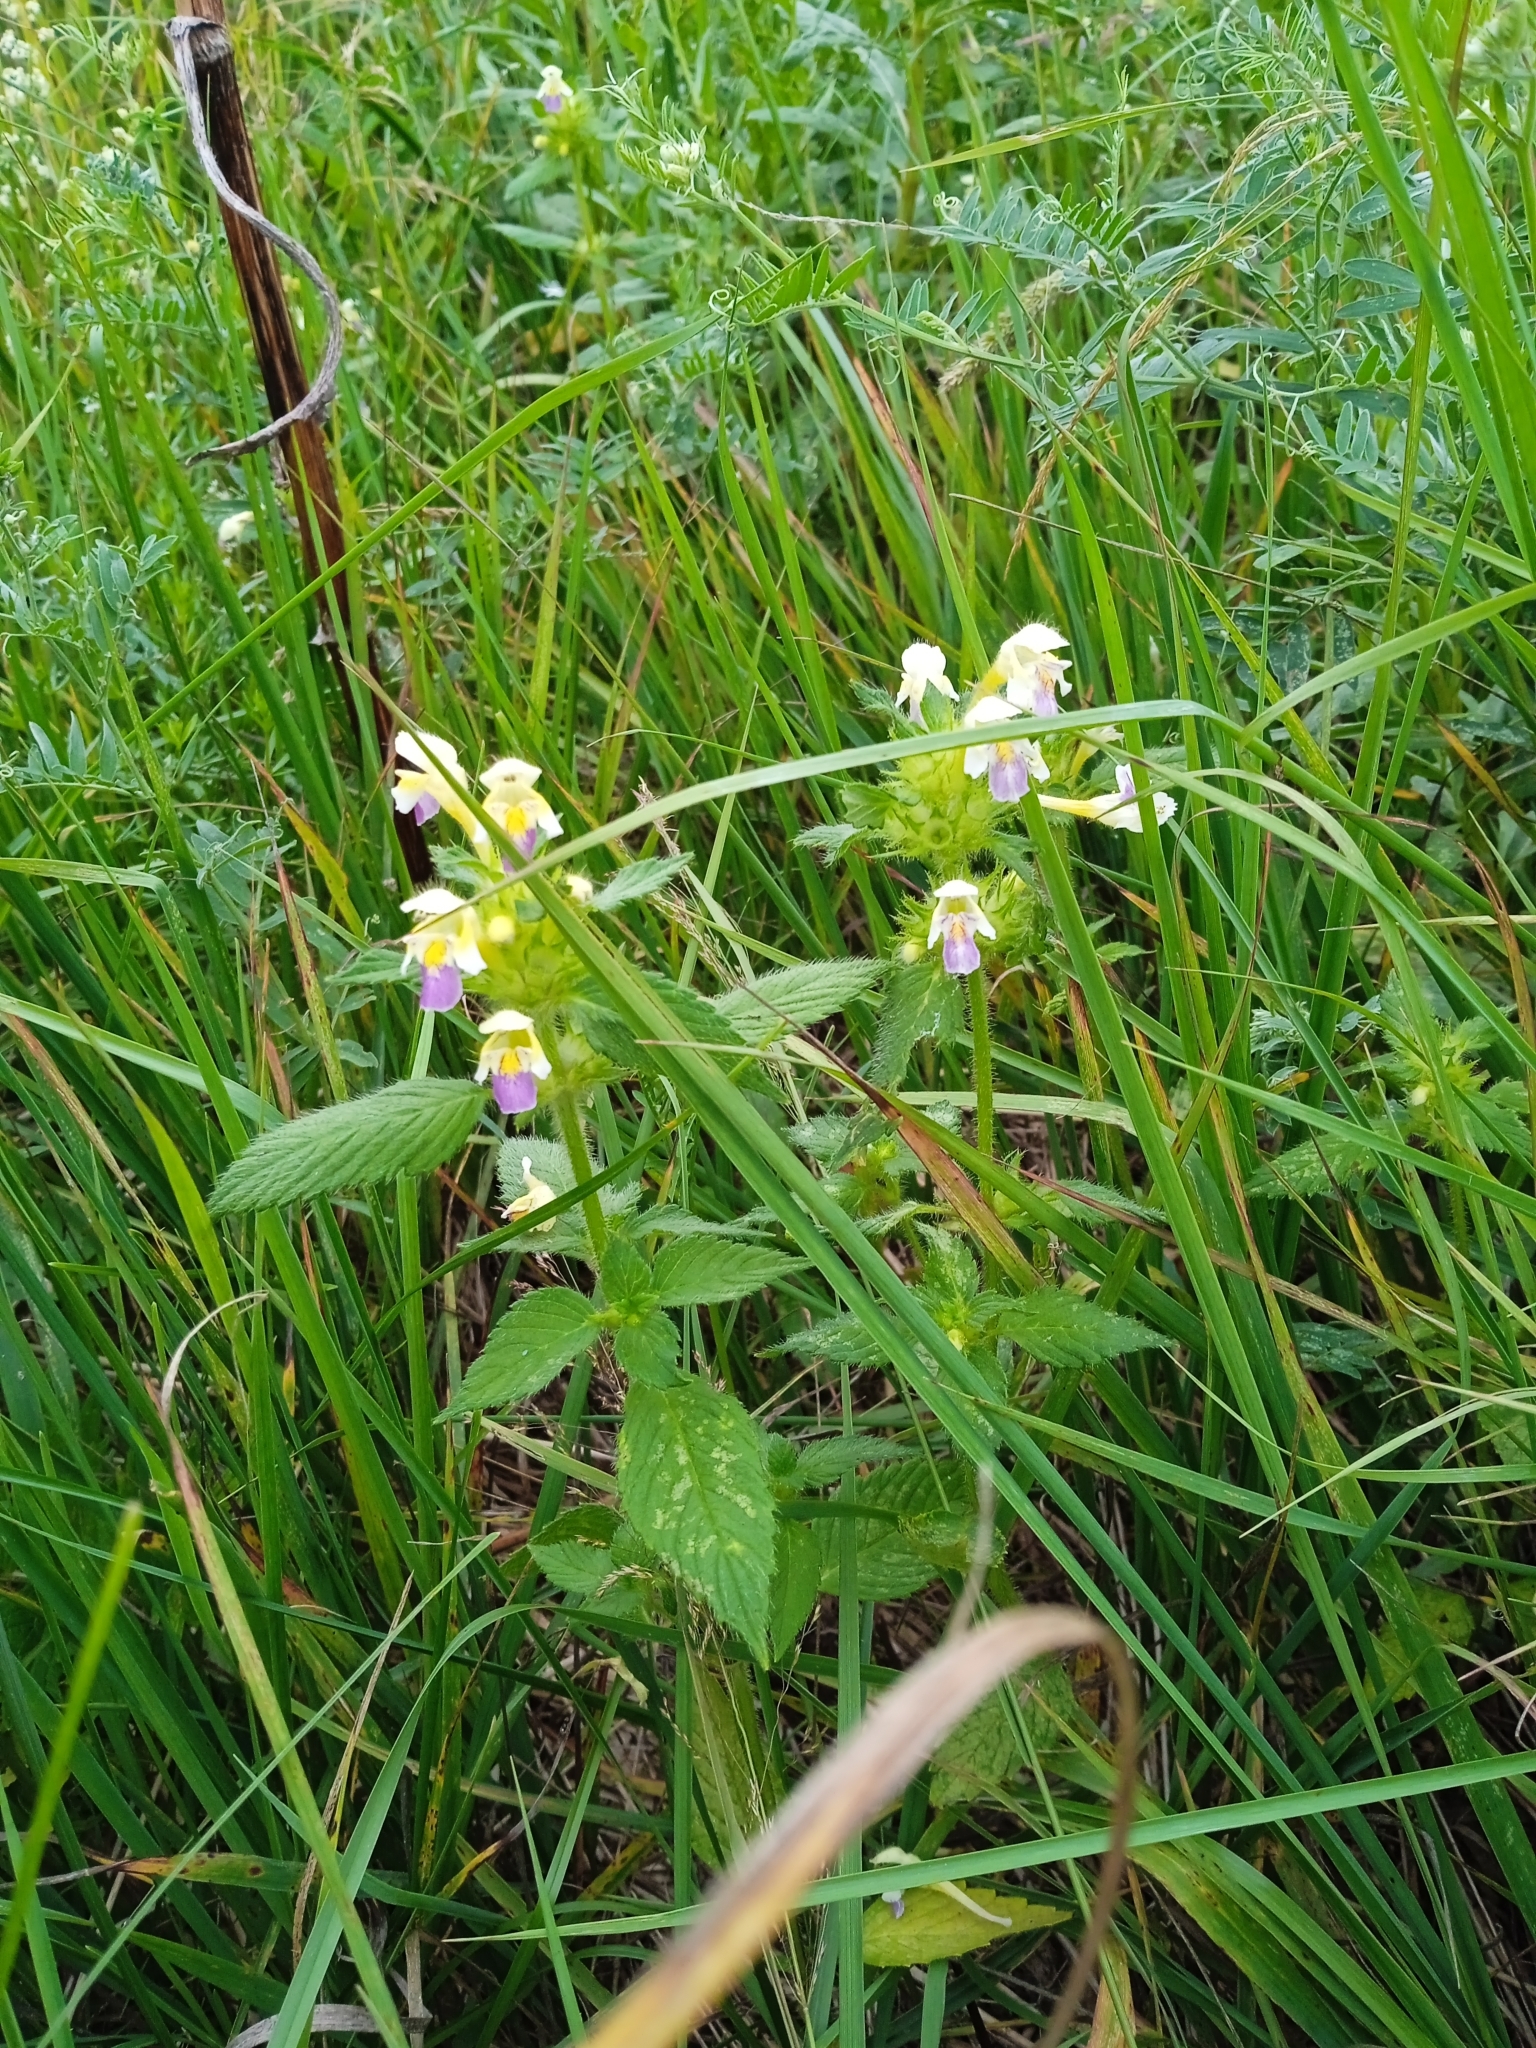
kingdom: Plantae
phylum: Tracheophyta
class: Magnoliopsida
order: Lamiales
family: Lamiaceae
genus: Galeopsis
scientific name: Galeopsis speciosa
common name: Large-flowered hemp-nettle
